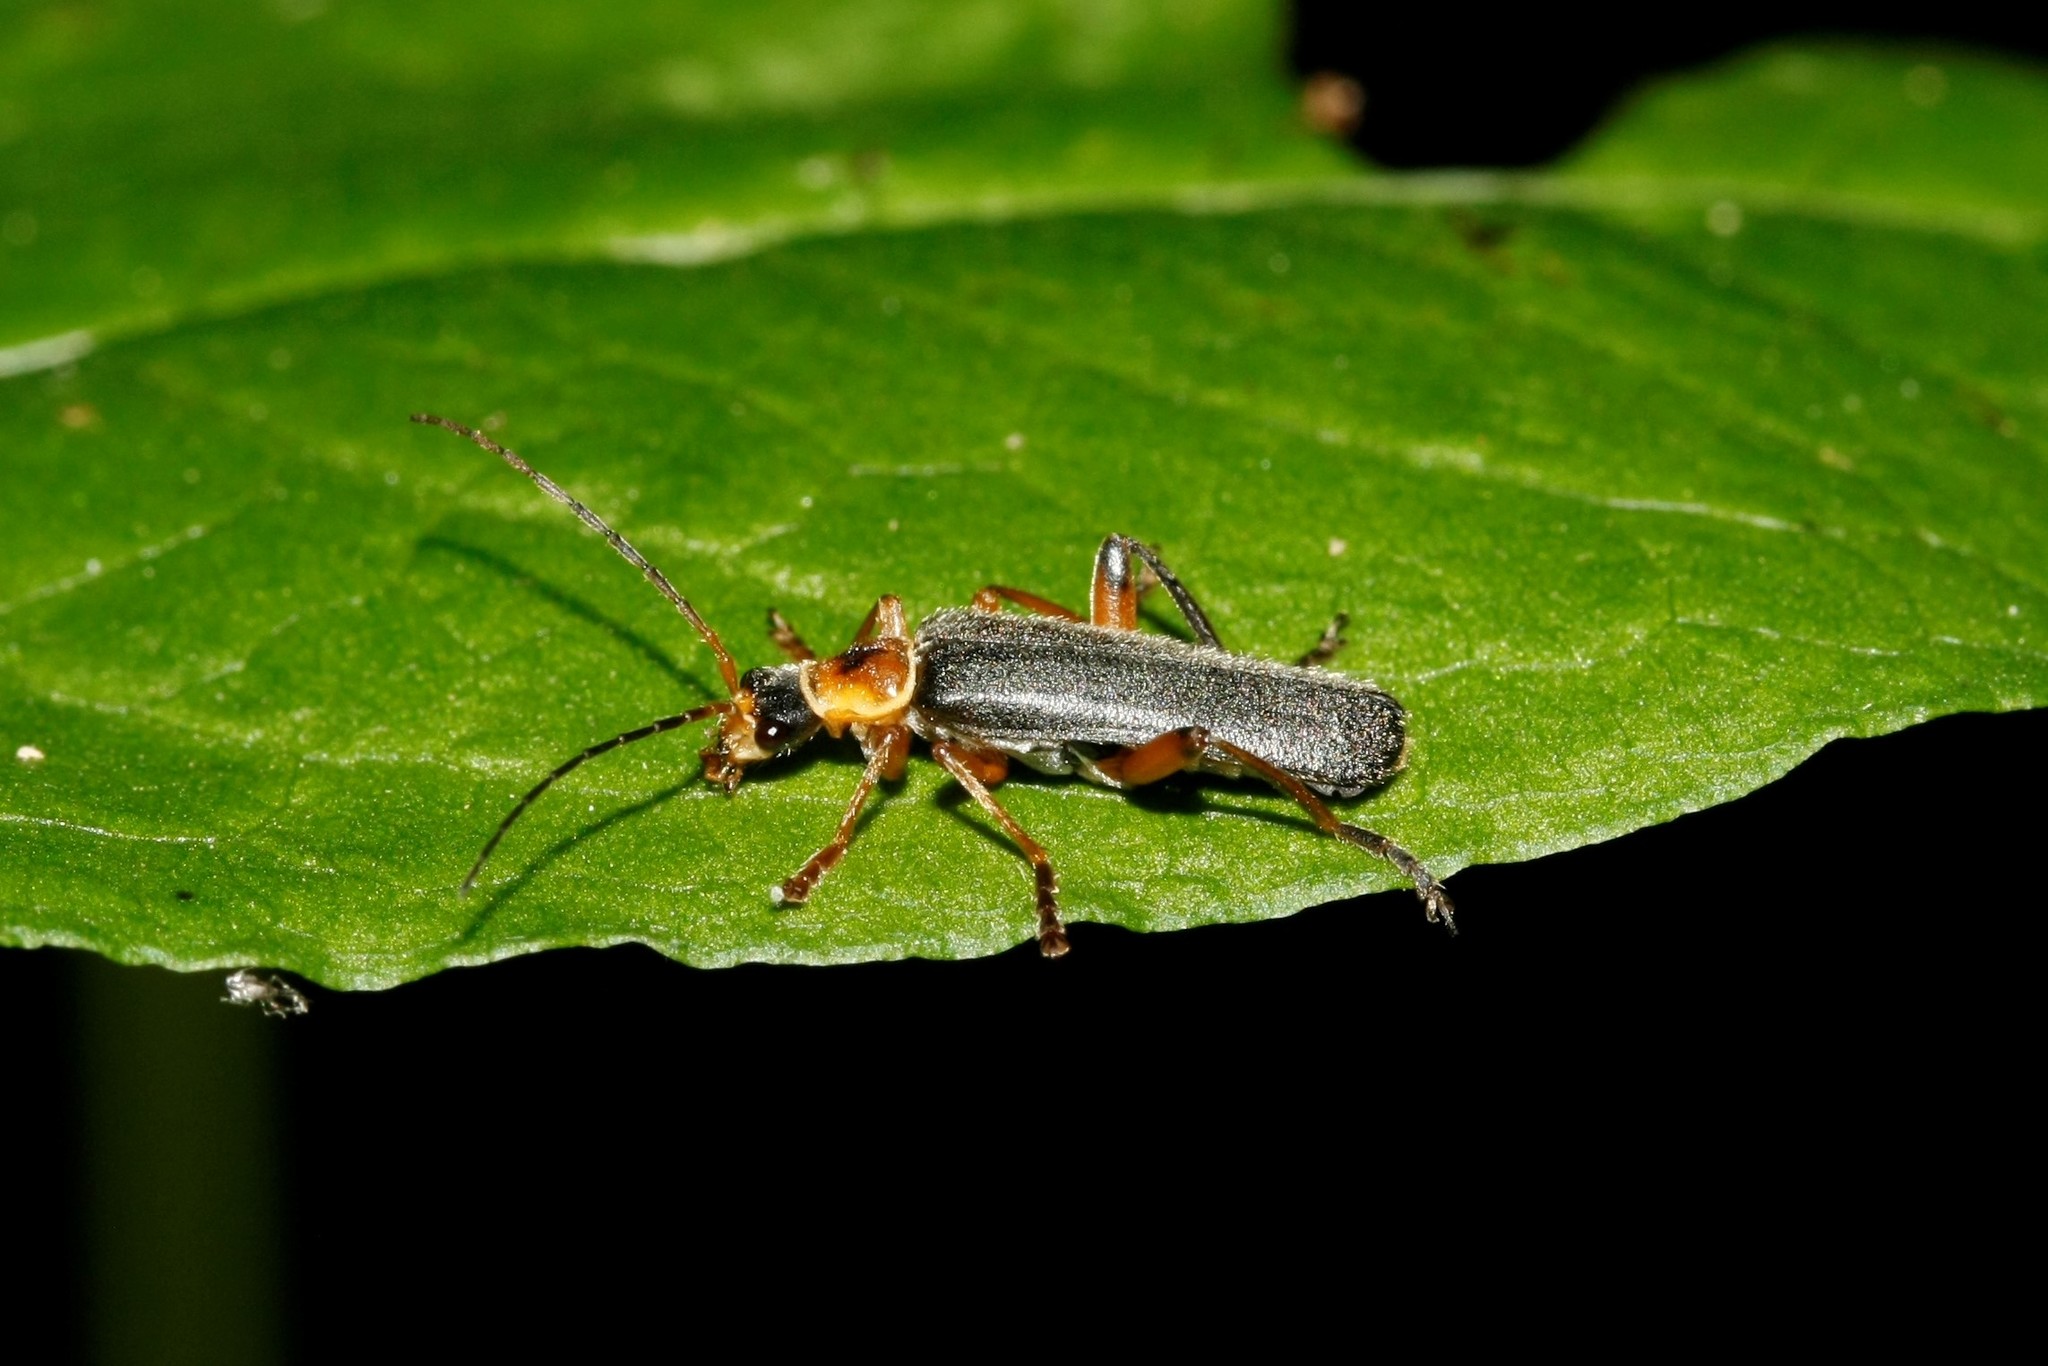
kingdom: Animalia
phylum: Arthropoda
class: Insecta
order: Coleoptera
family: Cantharidae
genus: Cantharis
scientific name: Cantharis nigricans
